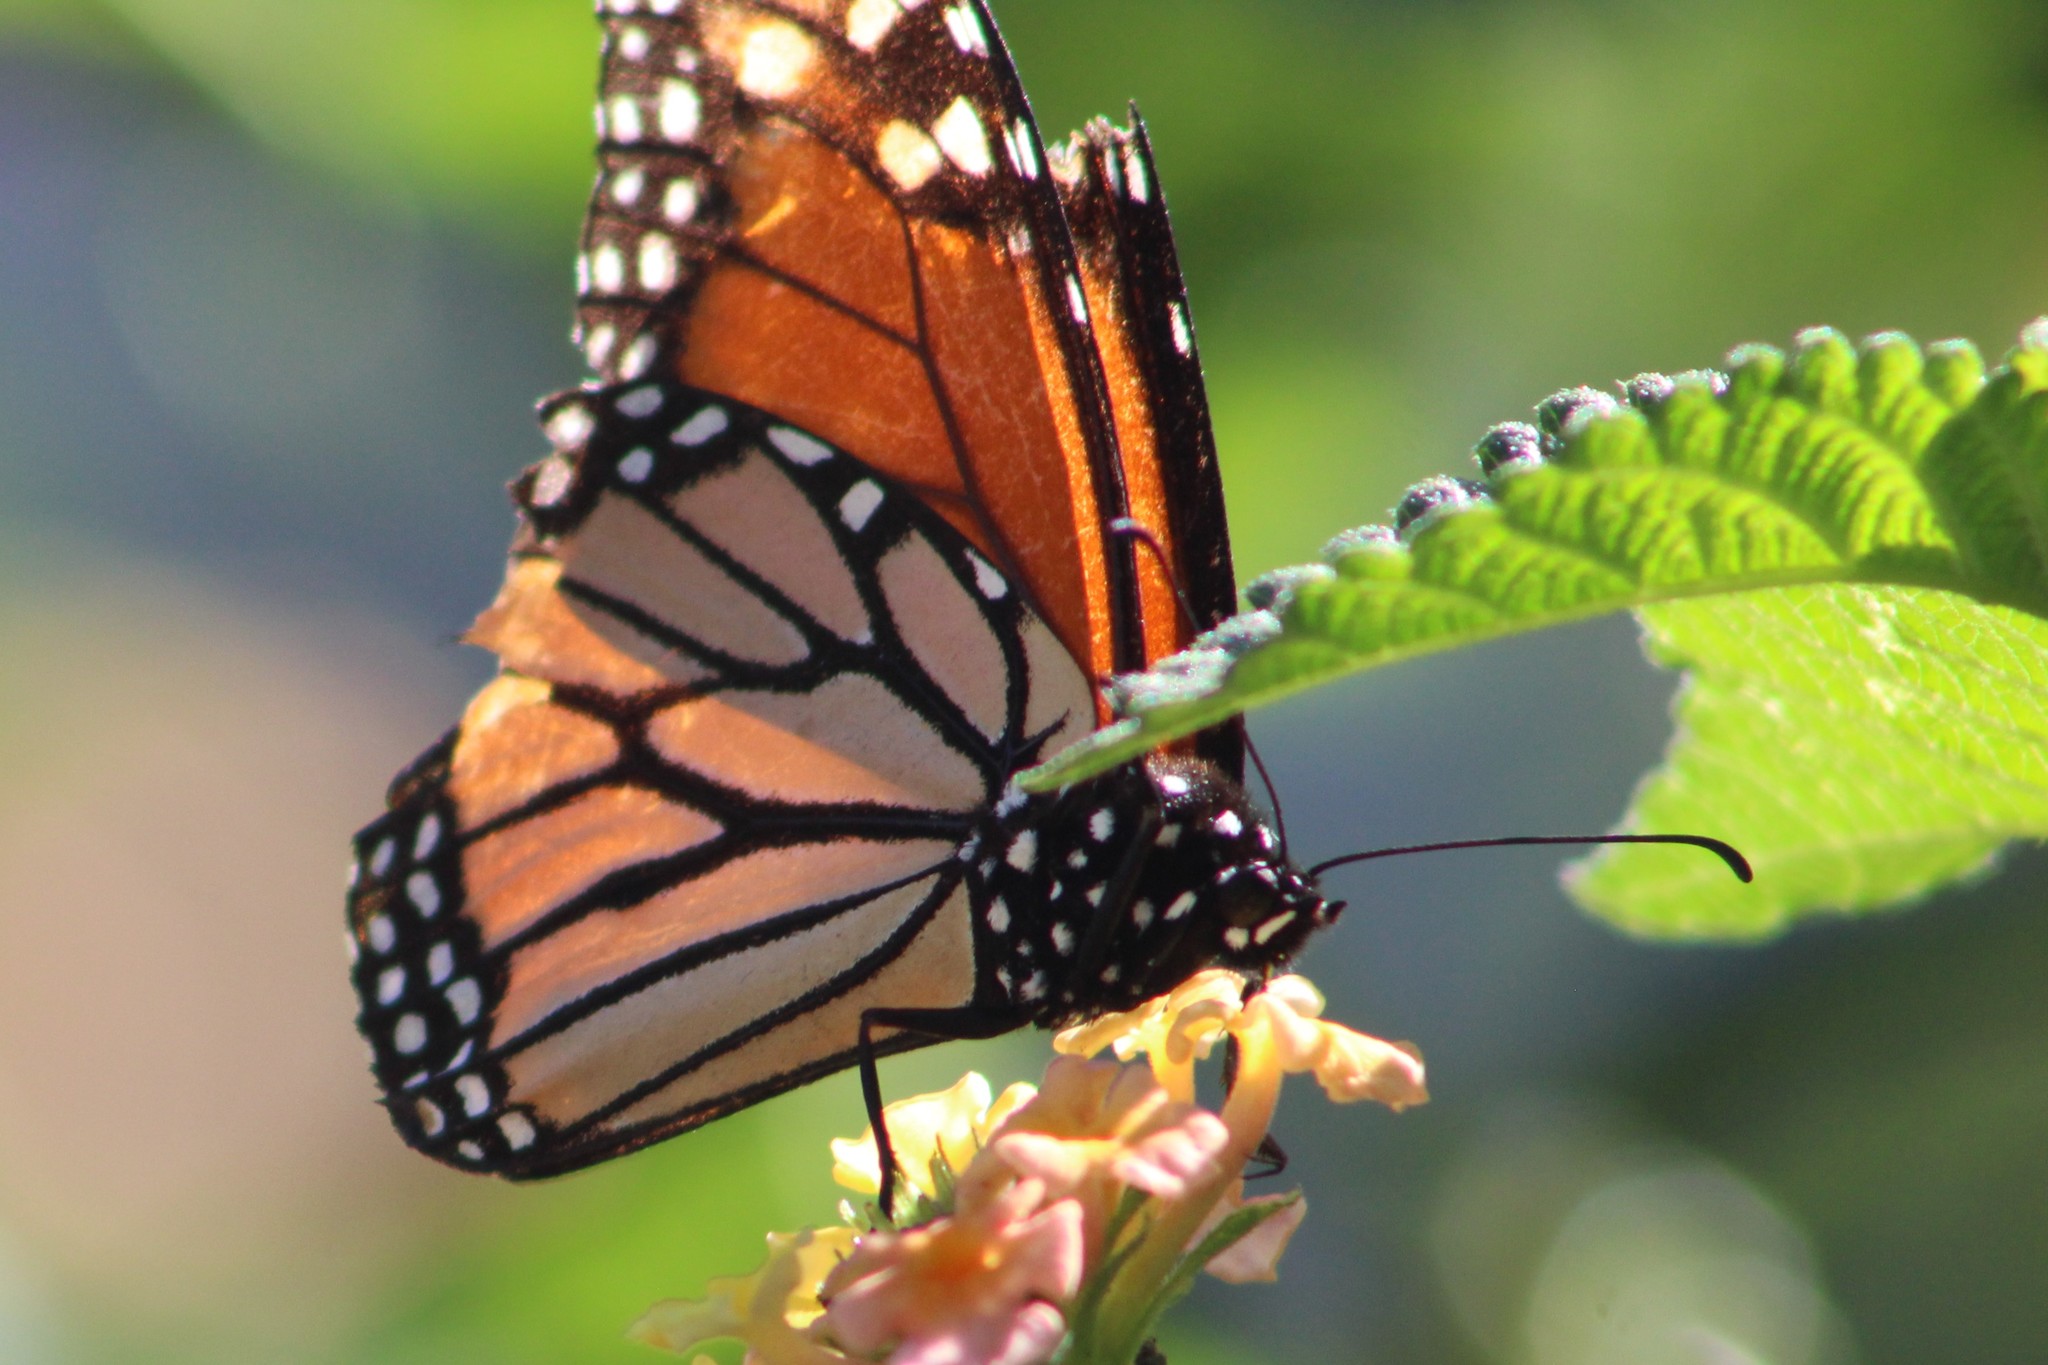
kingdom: Animalia
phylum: Arthropoda
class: Insecta
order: Lepidoptera
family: Nymphalidae
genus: Danaus
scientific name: Danaus plexippus
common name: Monarch
